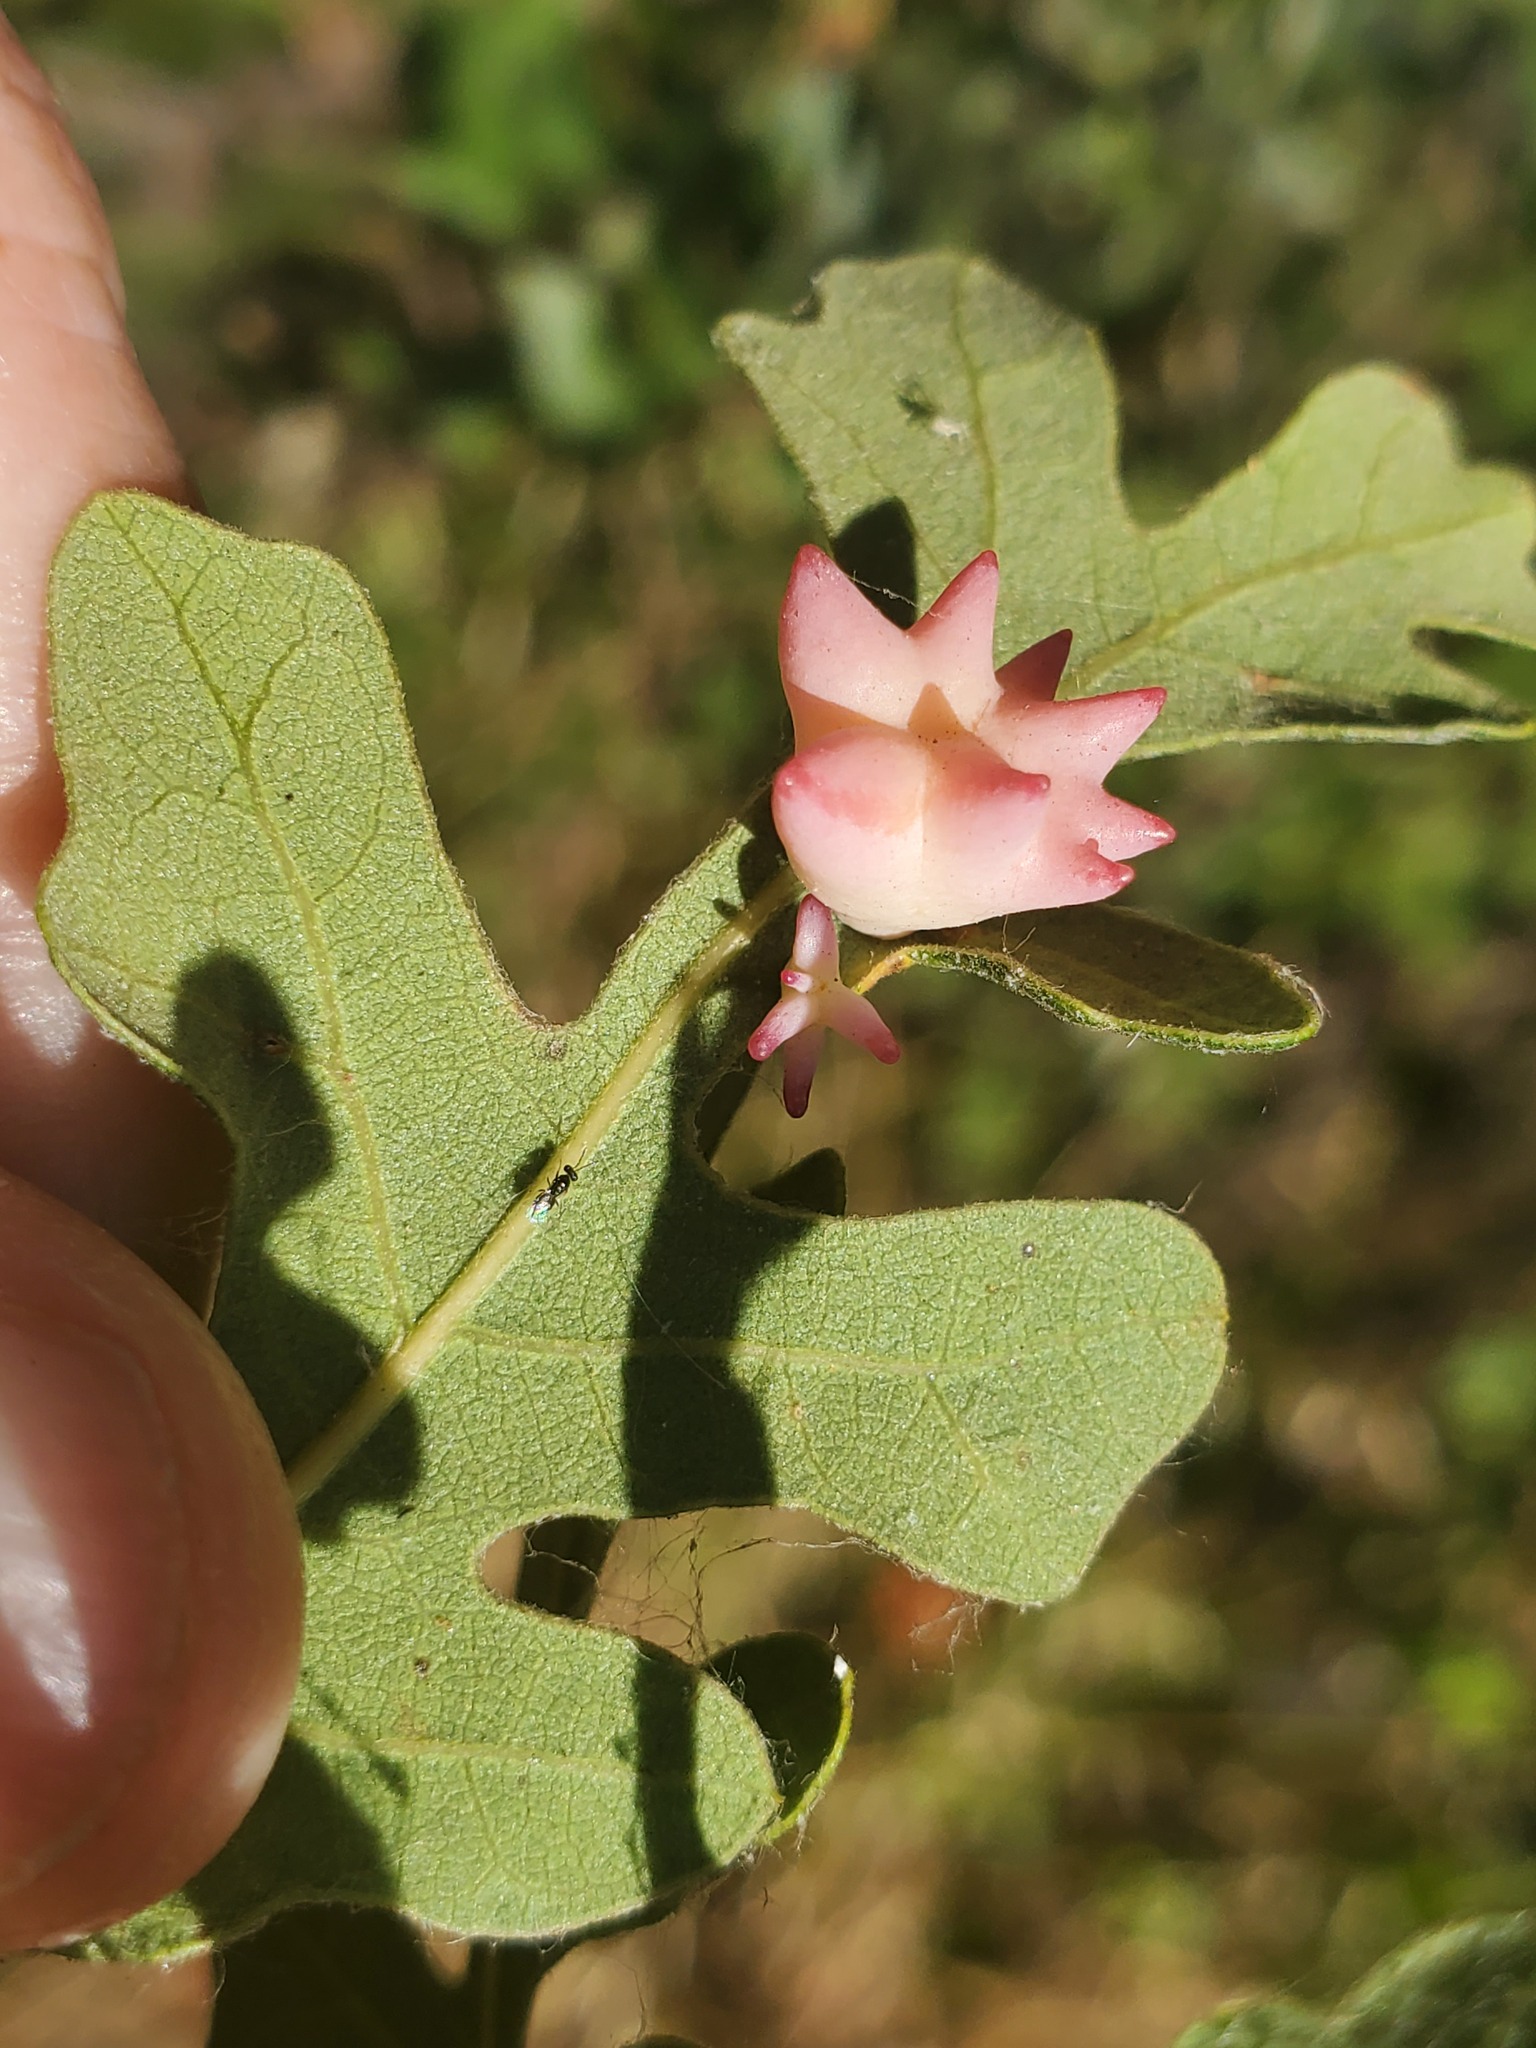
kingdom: Animalia
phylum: Arthropoda
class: Insecta
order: Hymenoptera
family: Cynipidae
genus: Cynips
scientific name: Cynips douglasi
